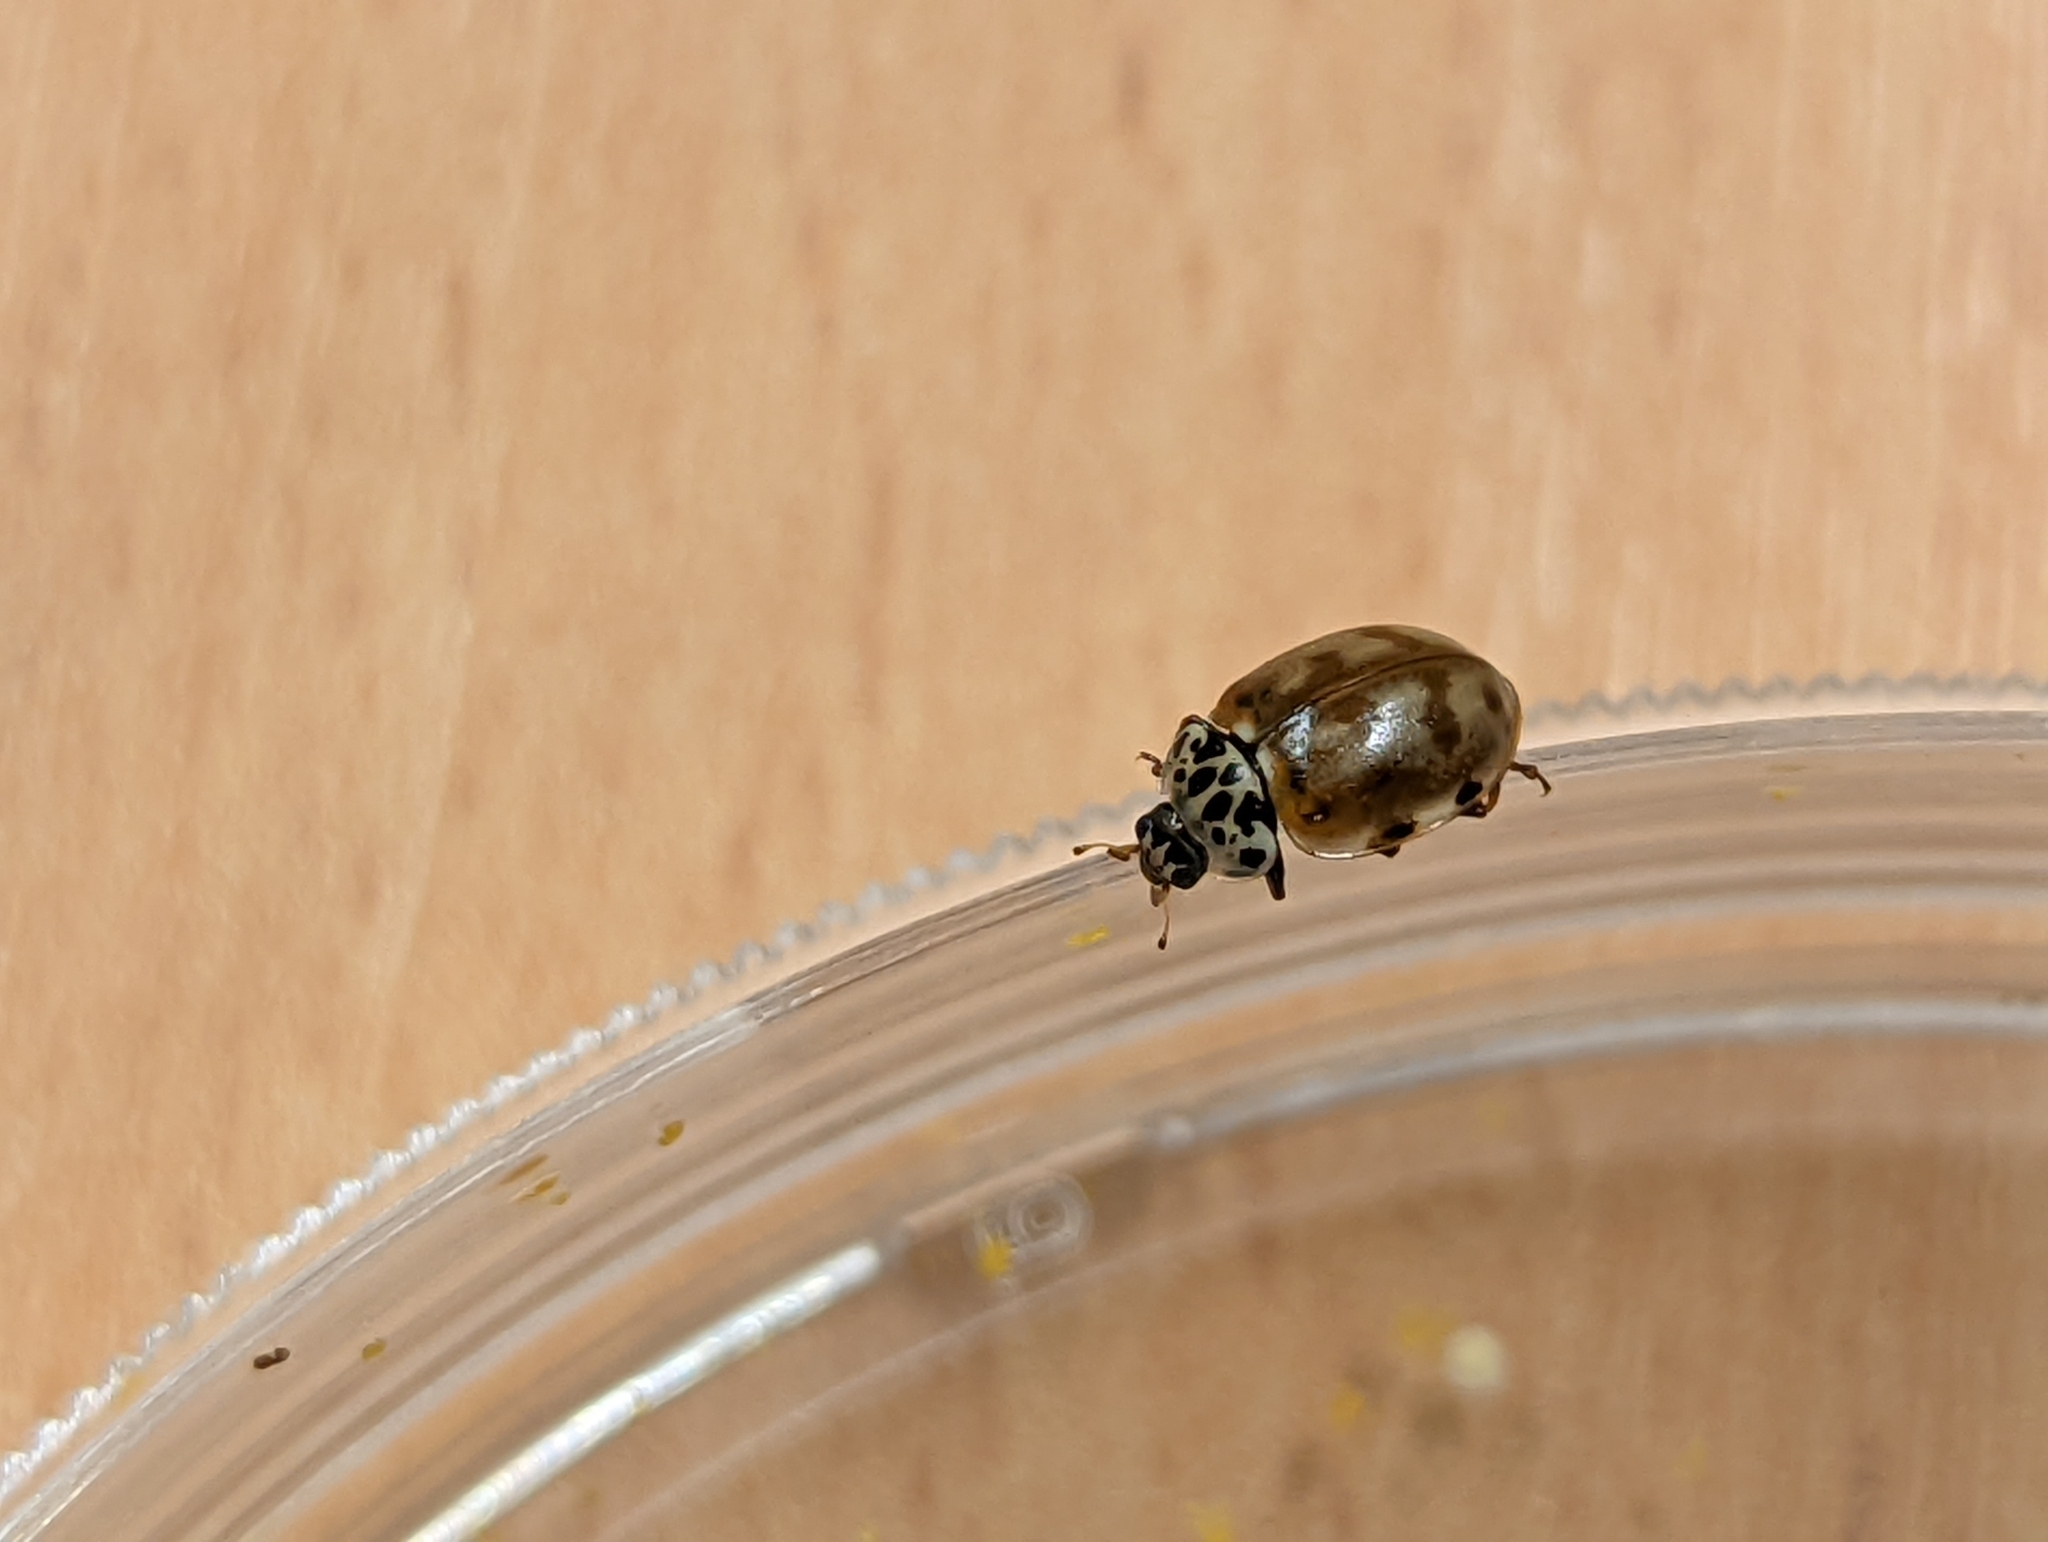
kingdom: Animalia
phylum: Arthropoda
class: Insecta
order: Coleoptera
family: Coccinellidae
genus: Harmonia
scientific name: Harmonia quadripunctata
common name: Cream-streaked ladybird
